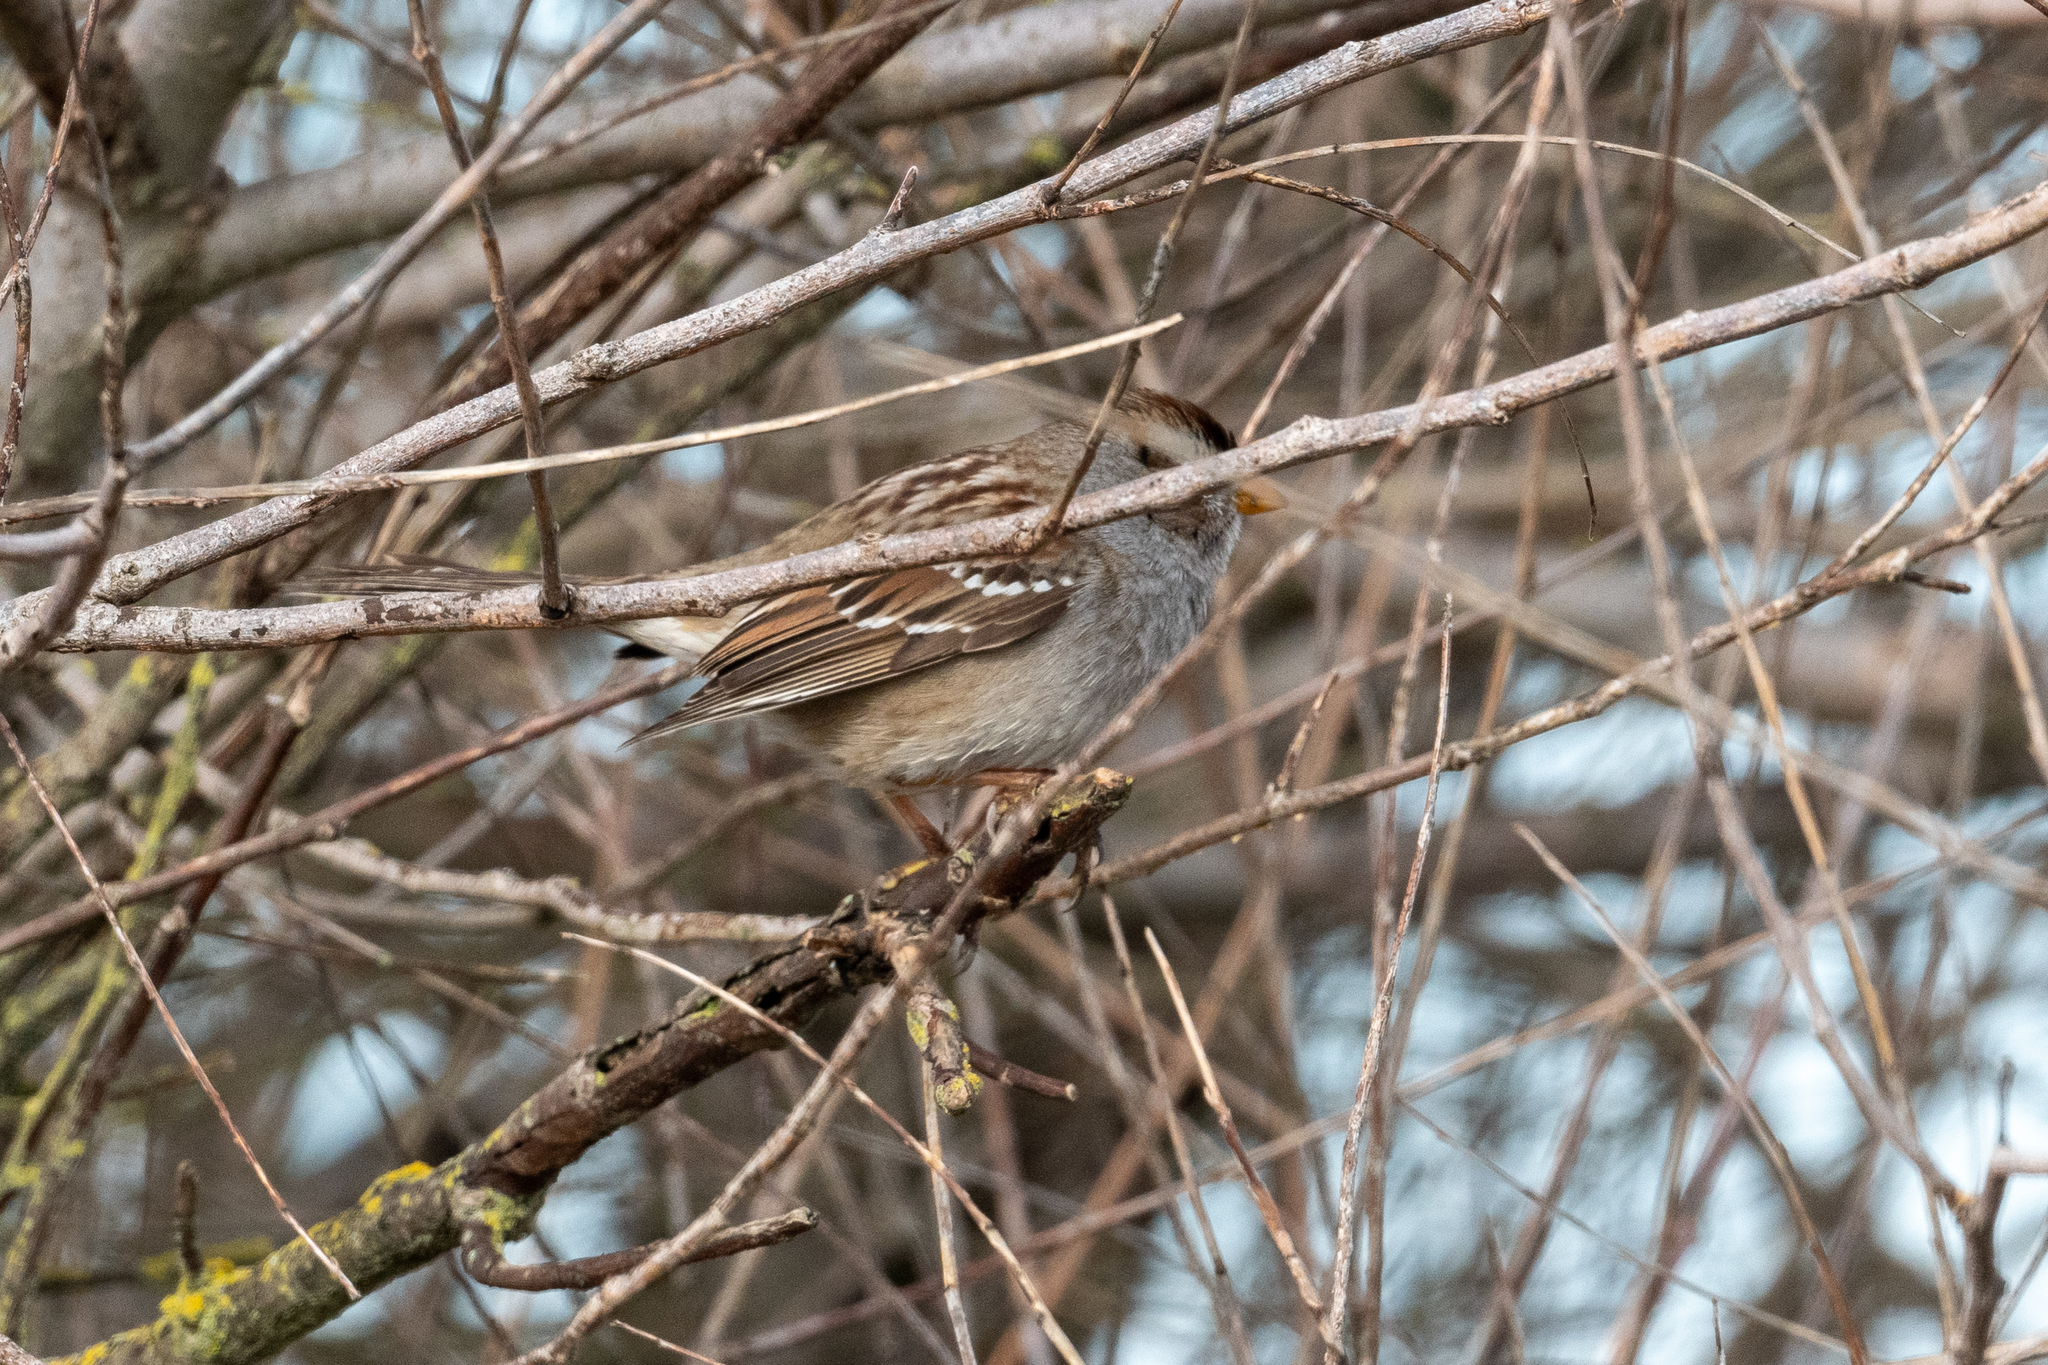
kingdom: Animalia
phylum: Chordata
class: Aves
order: Passeriformes
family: Passerellidae
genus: Zonotrichia
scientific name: Zonotrichia leucophrys
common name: White-crowned sparrow
